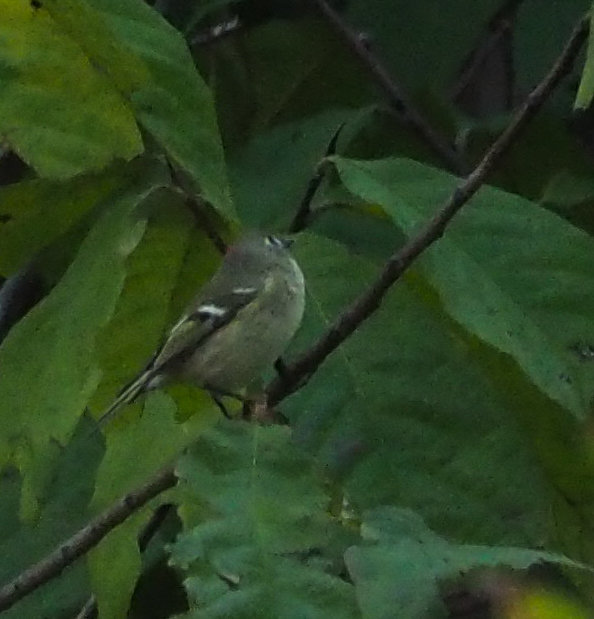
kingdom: Animalia
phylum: Chordata
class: Aves
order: Passeriformes
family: Regulidae
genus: Regulus
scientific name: Regulus calendula
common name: Ruby-crowned kinglet
